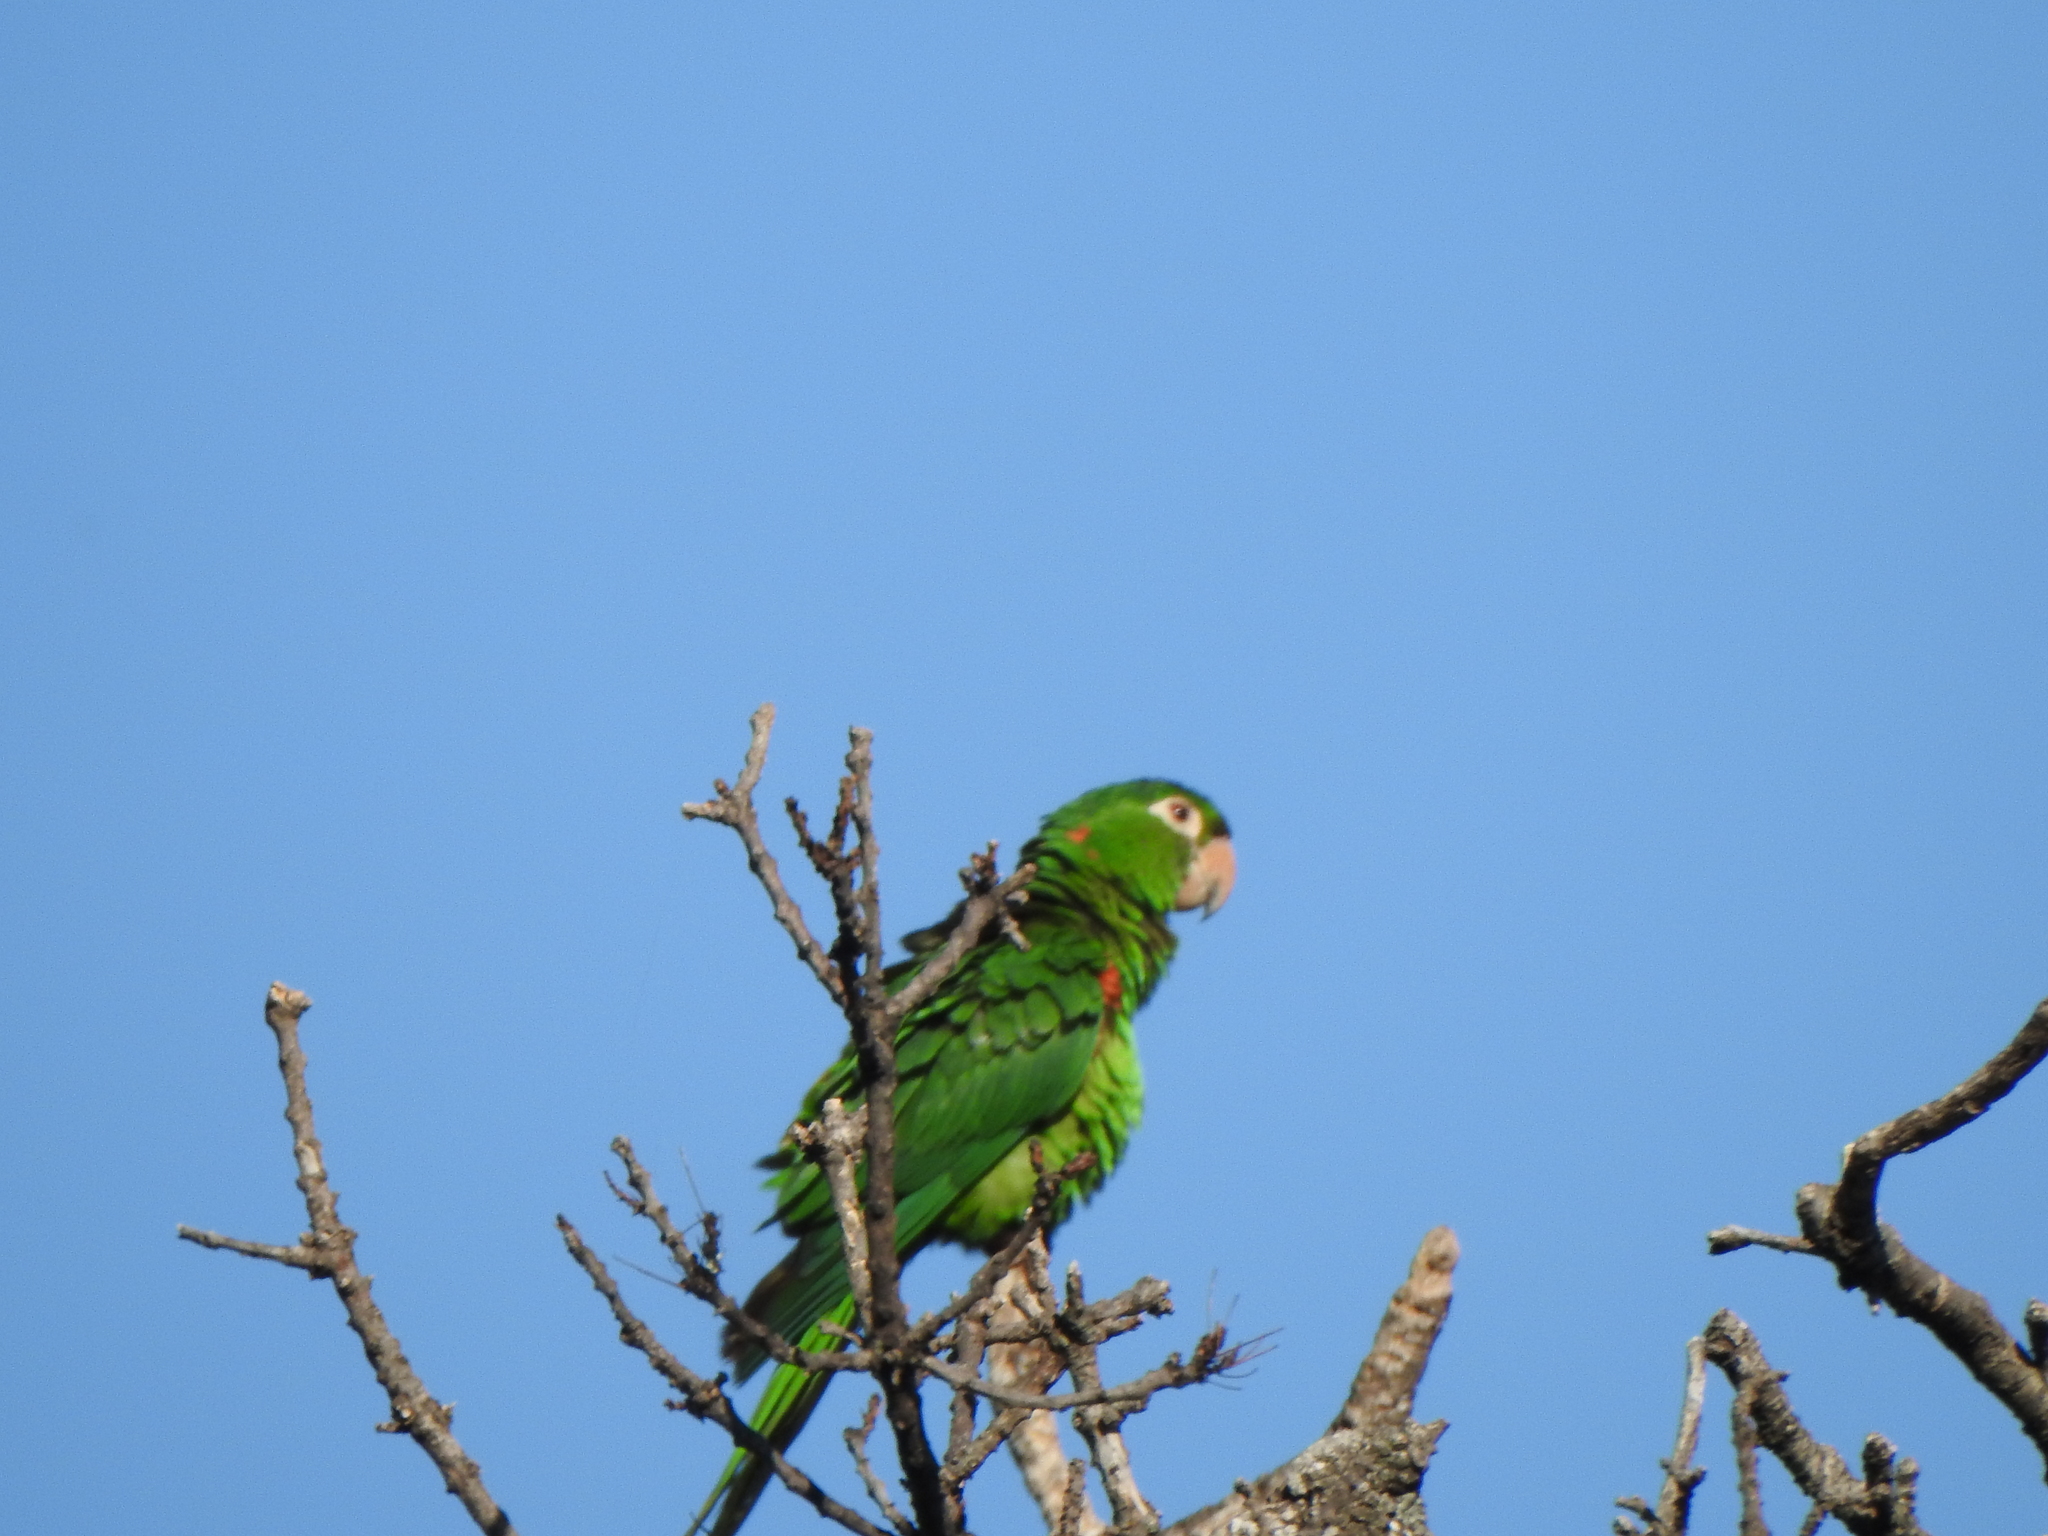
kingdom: Animalia
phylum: Chordata
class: Aves
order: Psittaciformes
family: Psittacidae
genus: Aratinga
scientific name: Aratinga leucophthalma
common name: White-eyed parakeet
